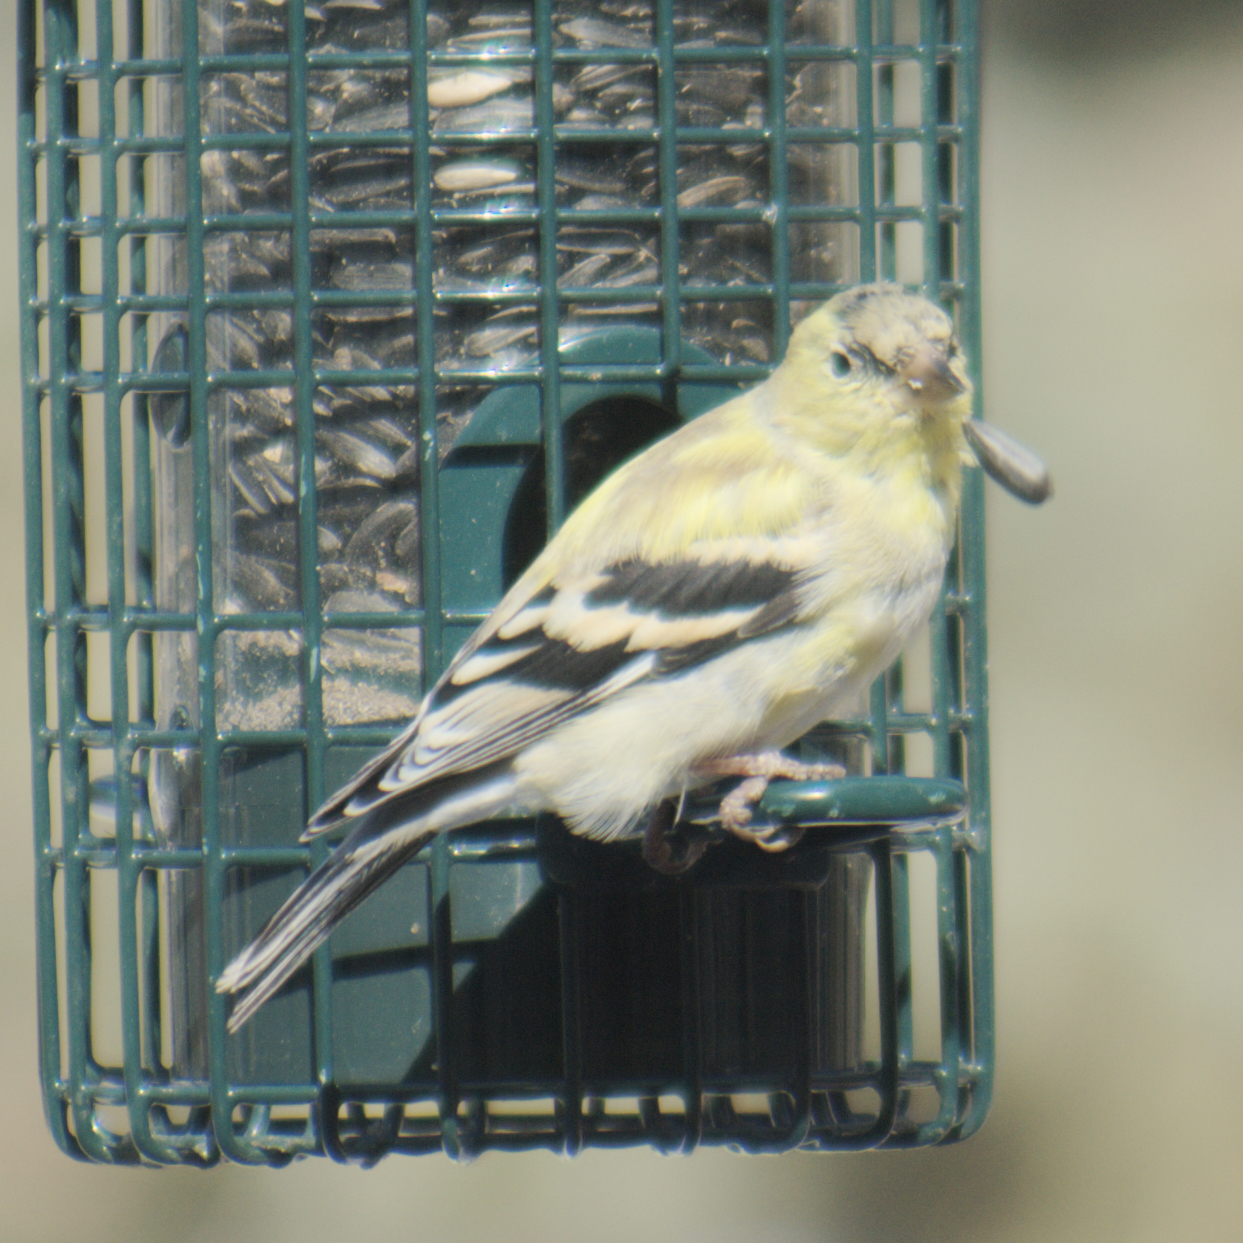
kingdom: Animalia
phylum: Chordata
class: Aves
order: Passeriformes
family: Fringillidae
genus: Spinus
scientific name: Spinus tristis
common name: American goldfinch
